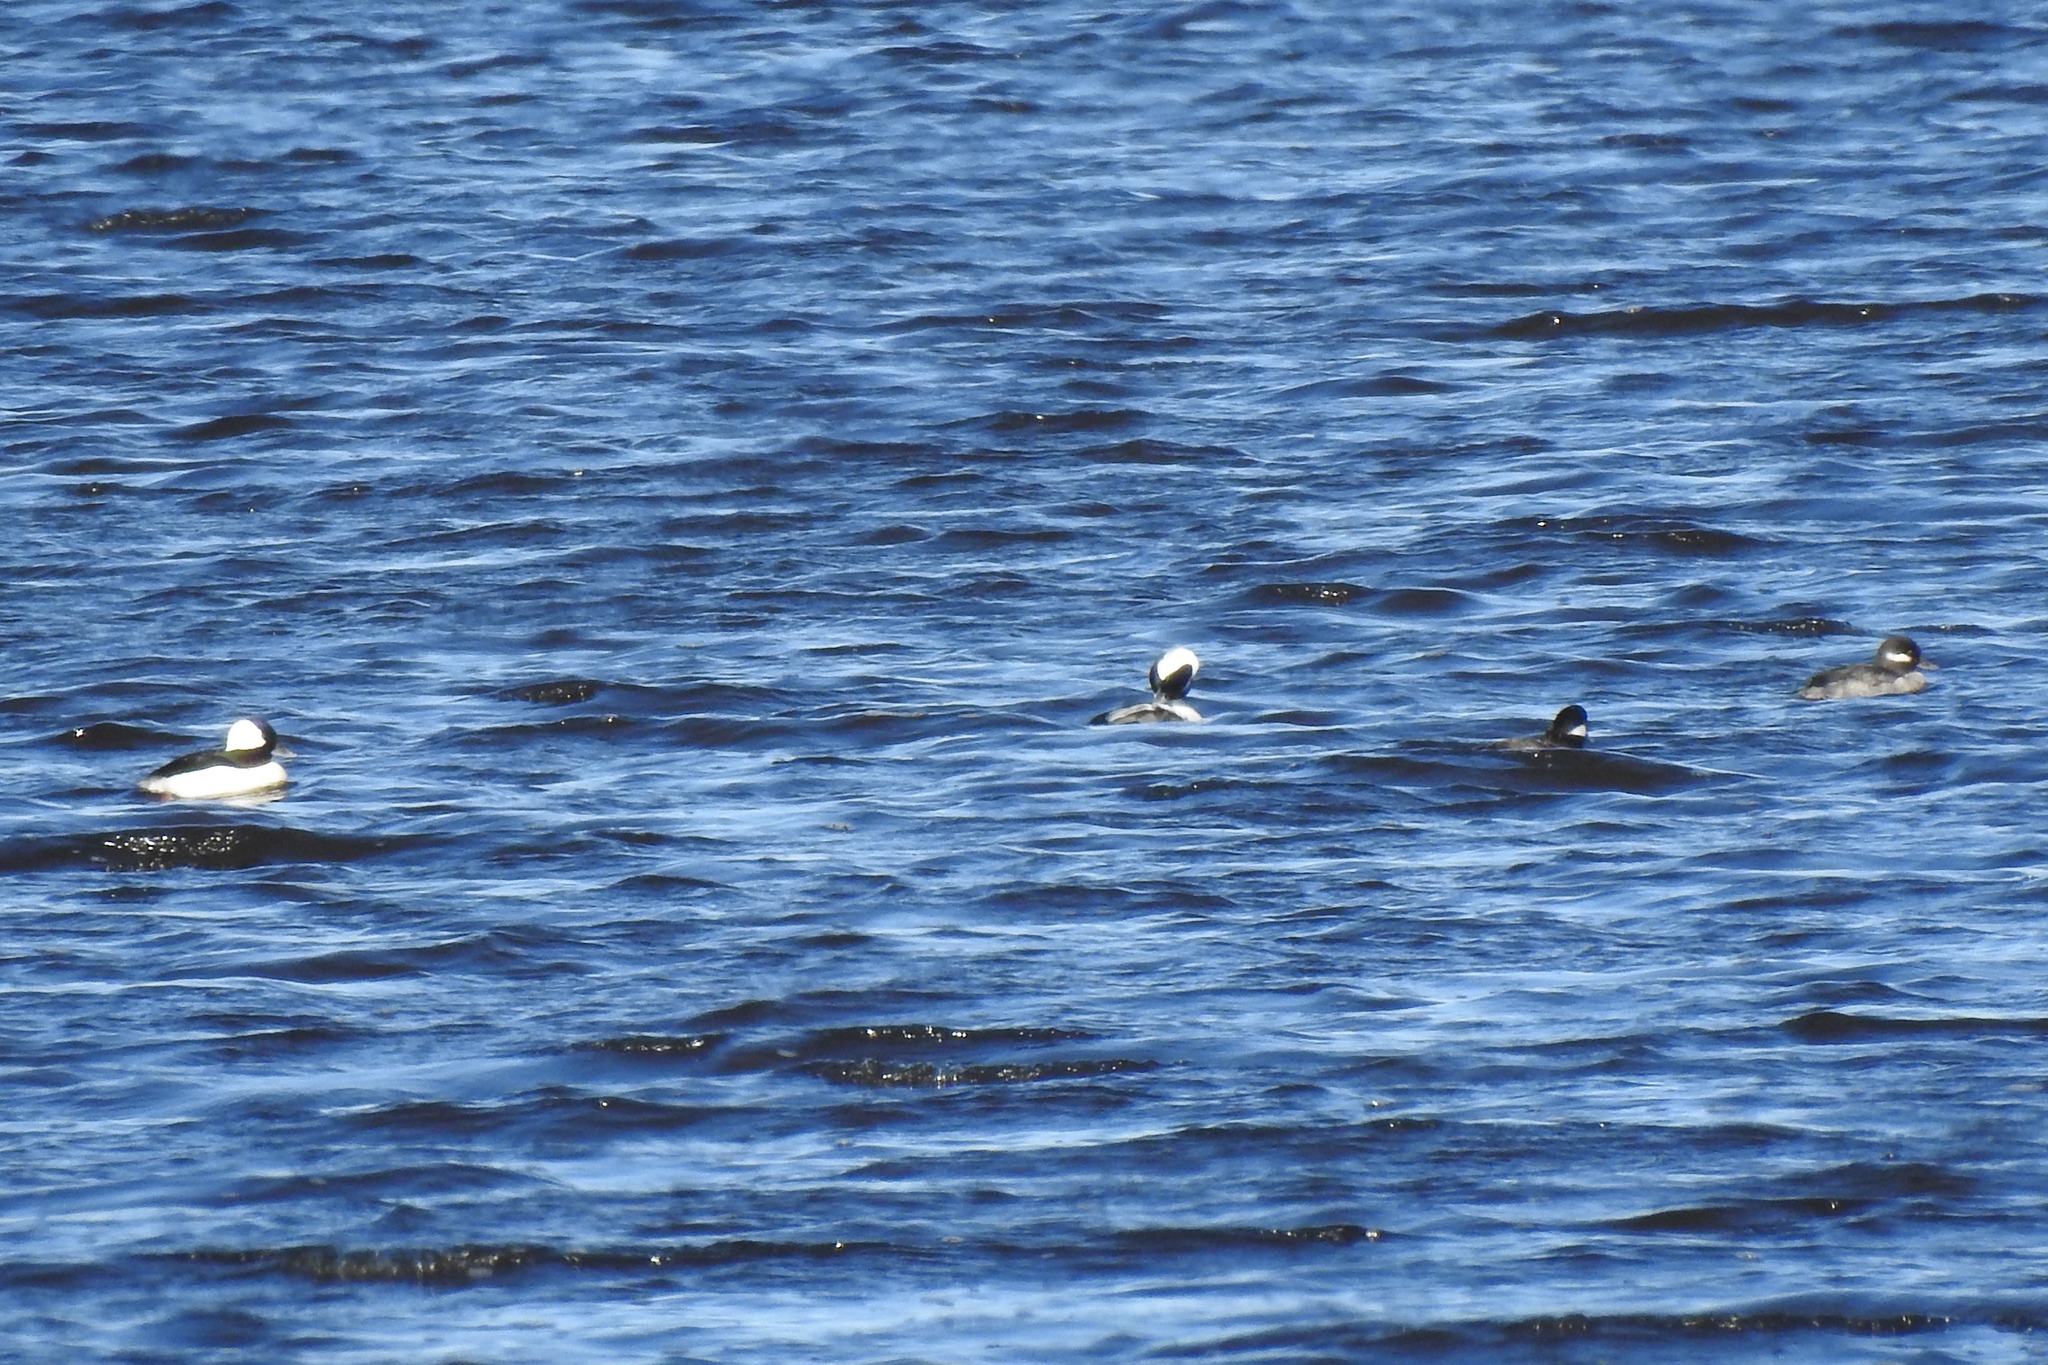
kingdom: Animalia
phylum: Chordata
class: Aves
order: Anseriformes
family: Anatidae
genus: Bucephala
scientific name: Bucephala albeola
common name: Bufflehead
